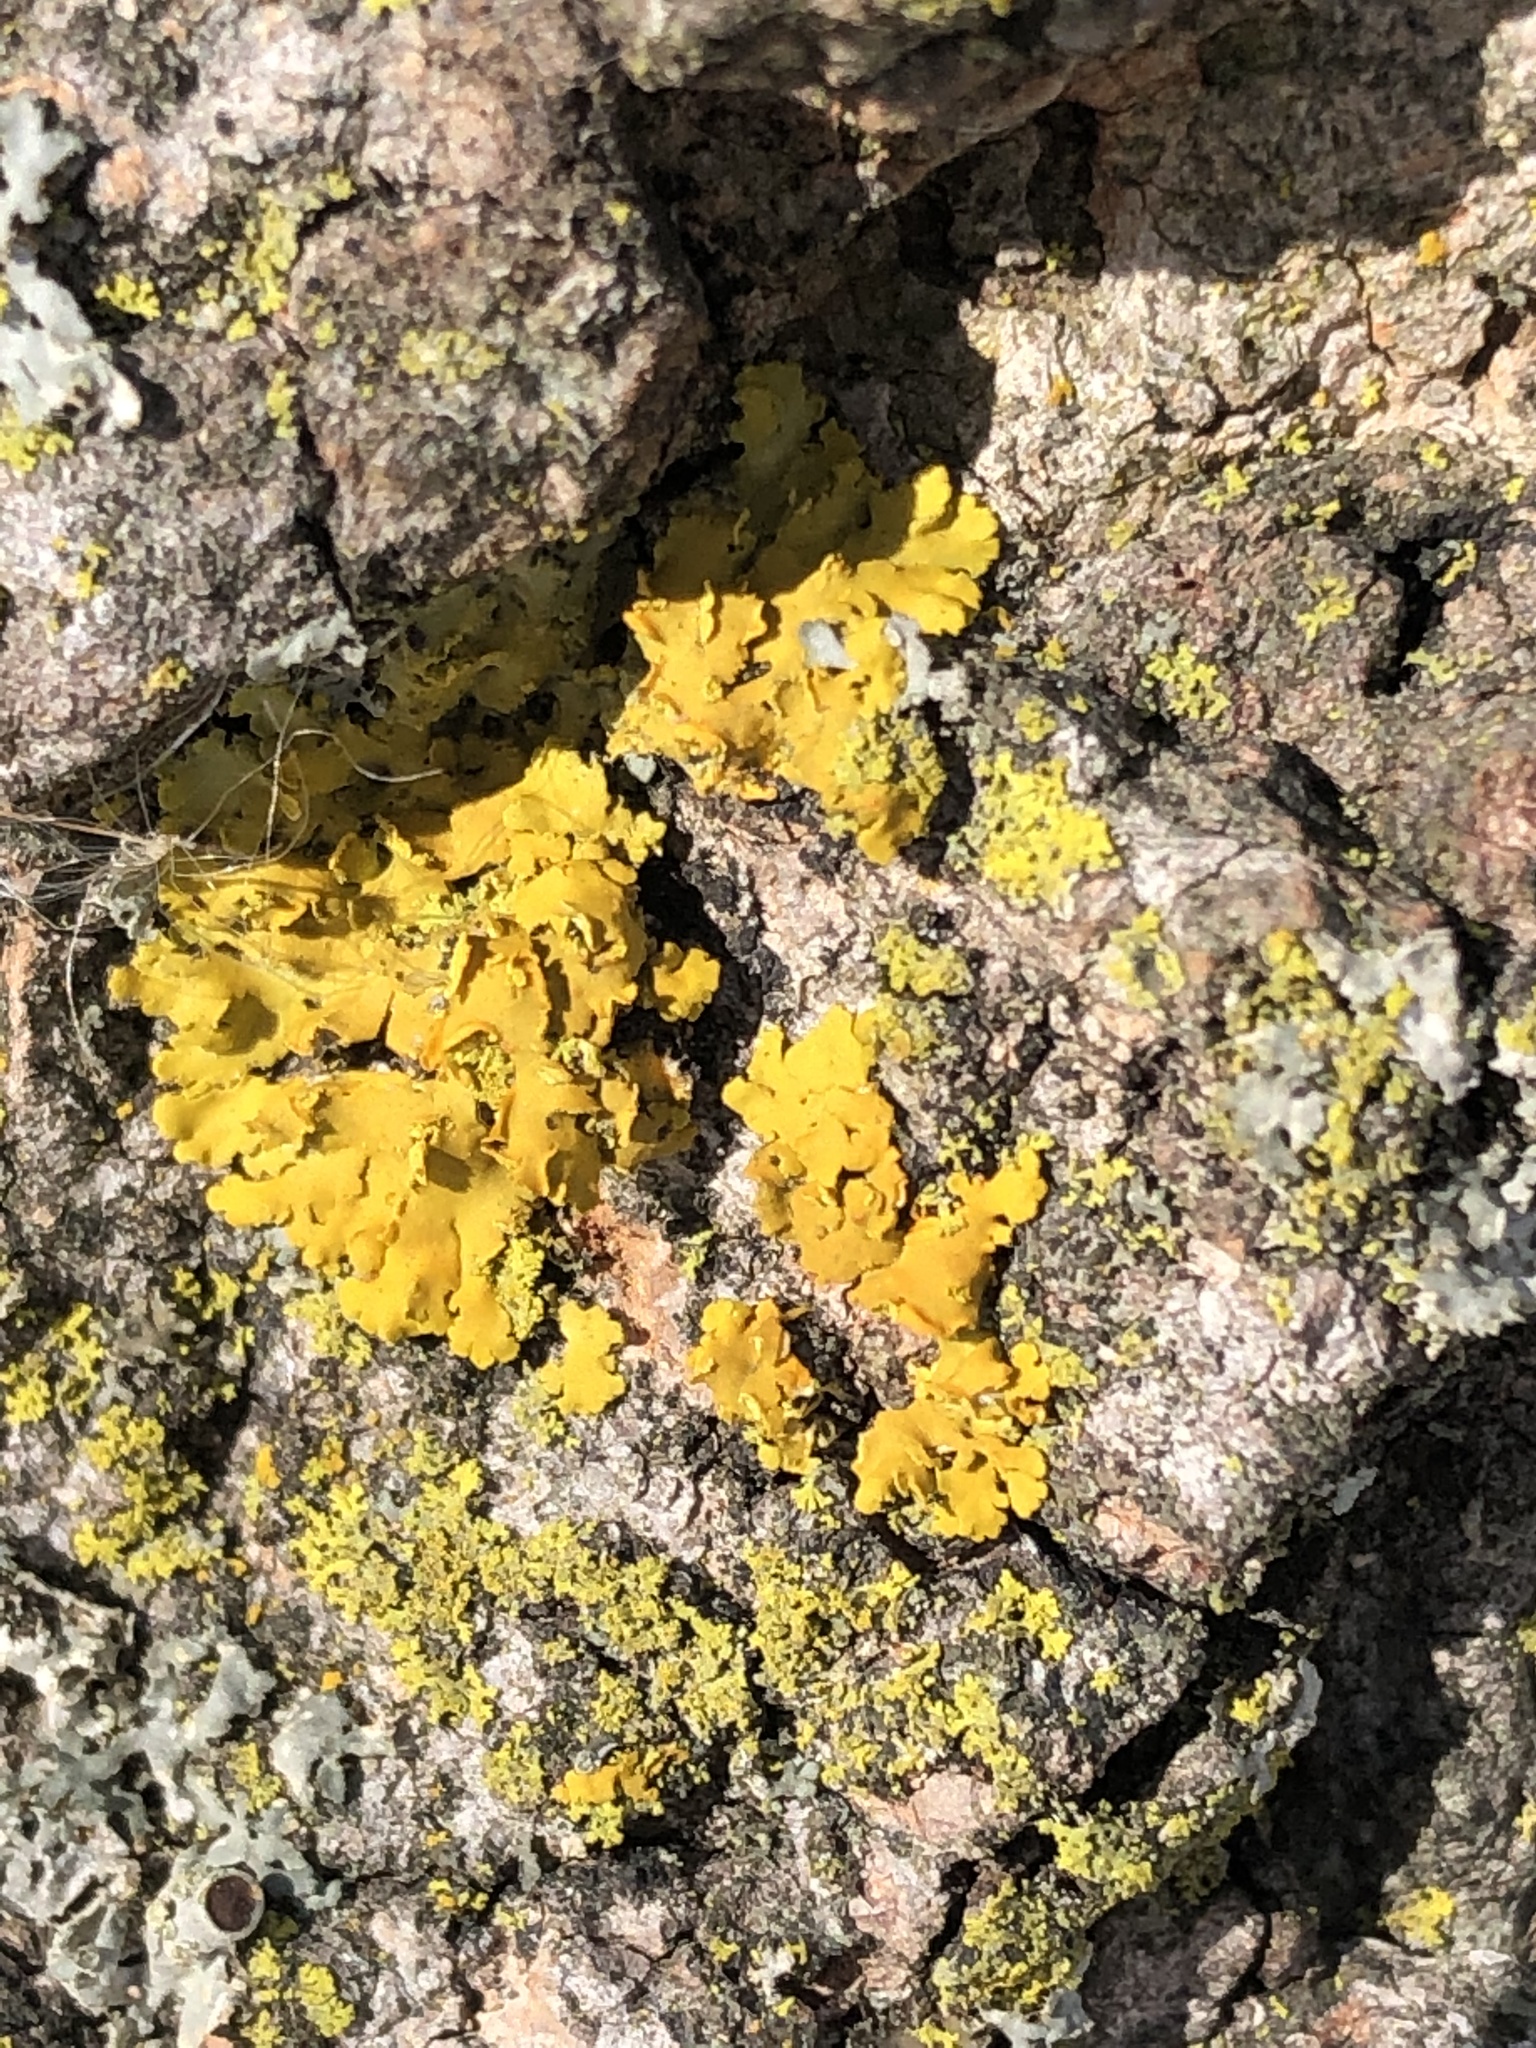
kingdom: Fungi
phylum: Ascomycota
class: Lecanoromycetes
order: Teloschistales
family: Teloschistaceae
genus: Oxneria
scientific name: Oxneria fallax
